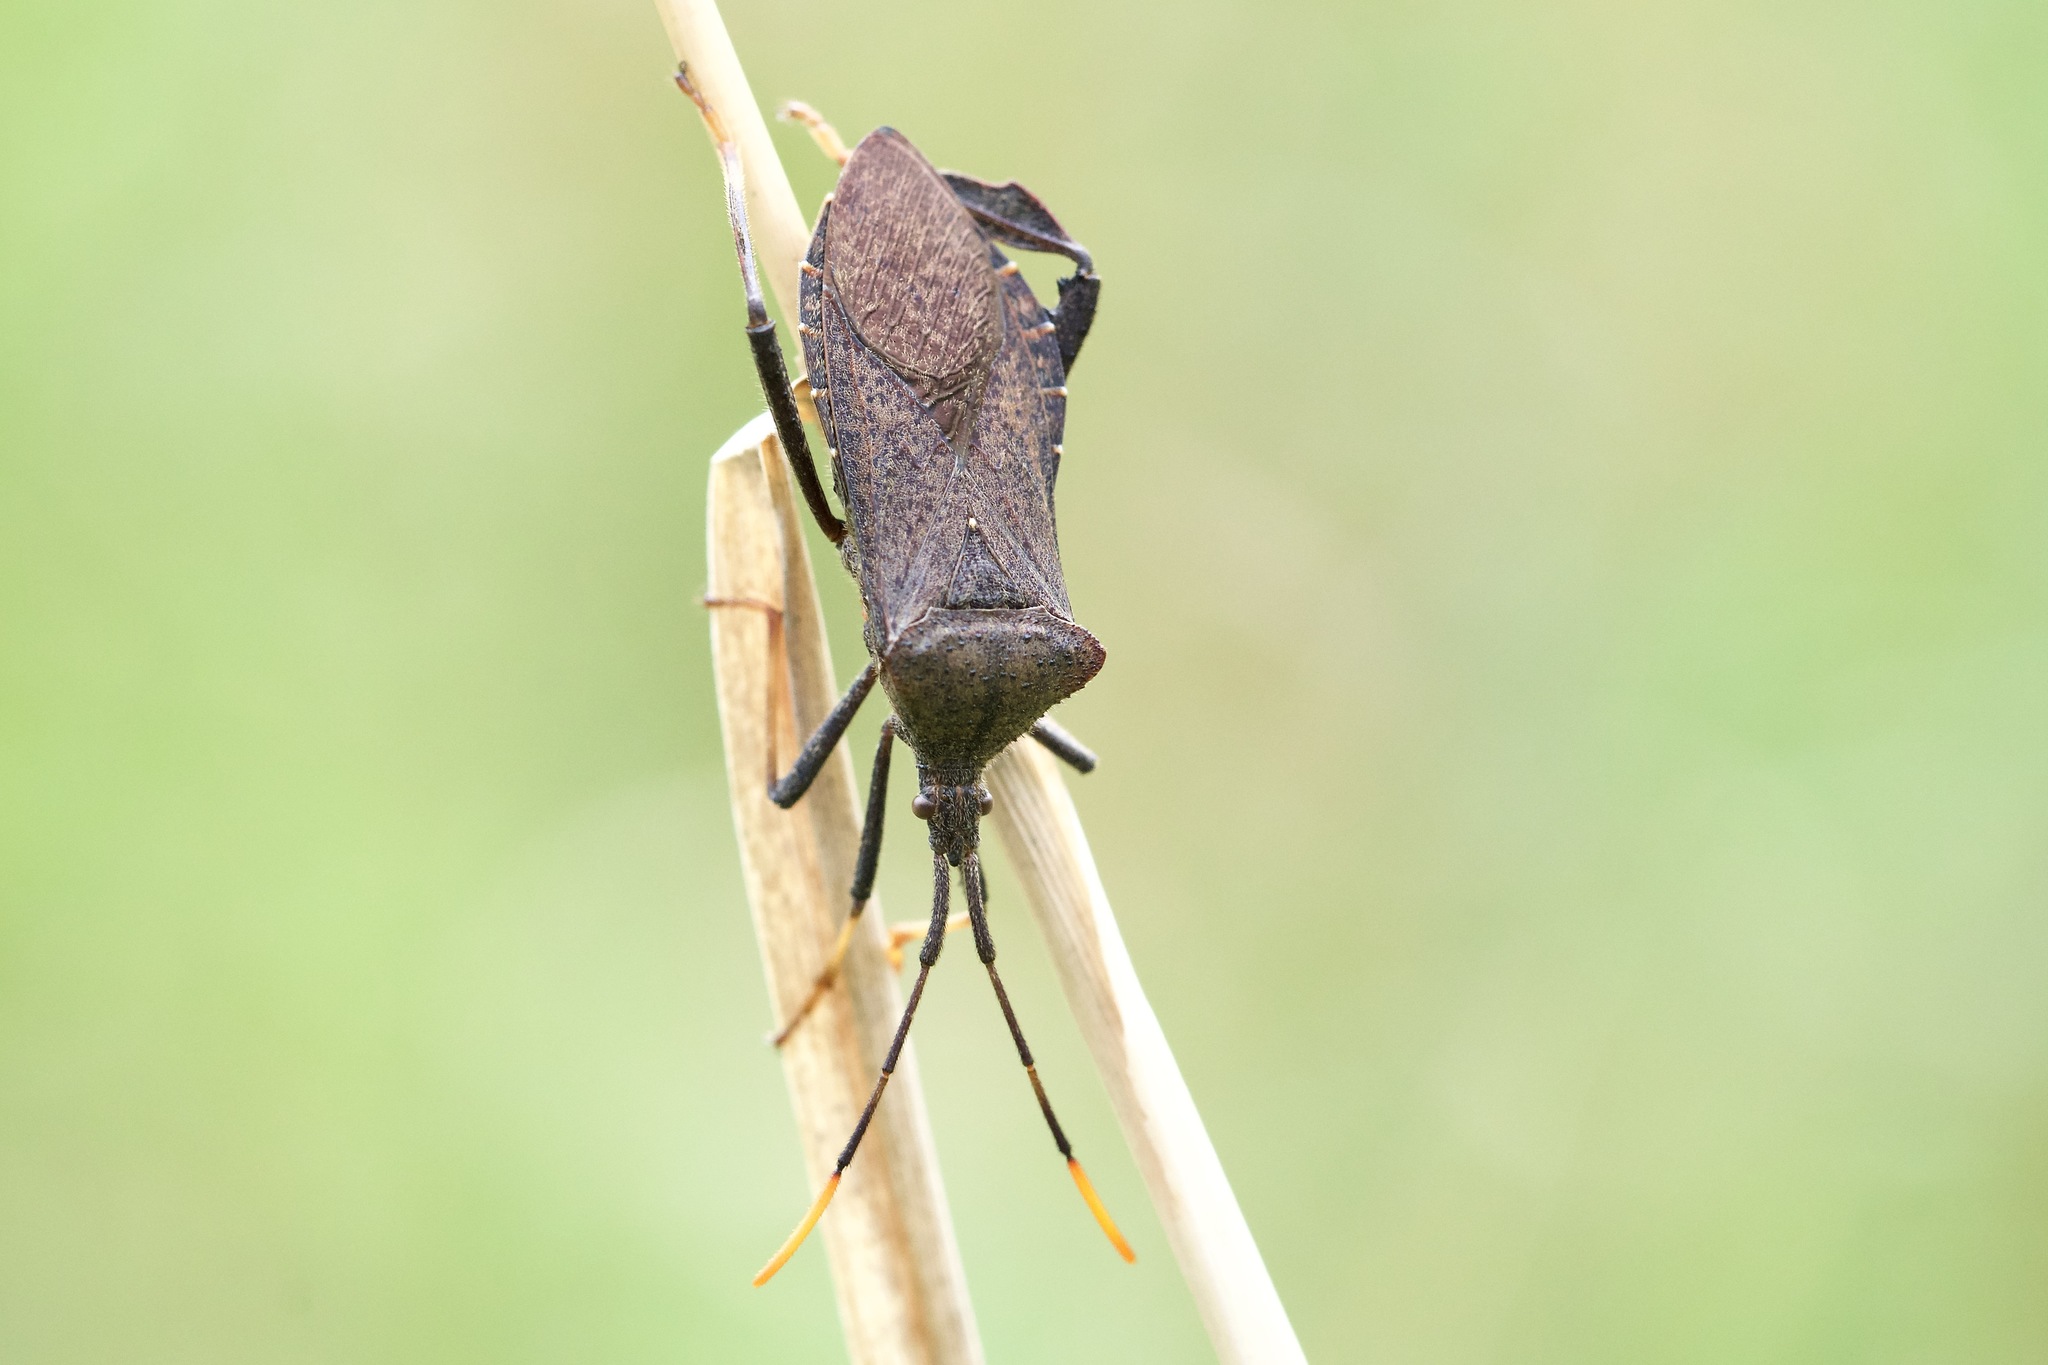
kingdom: Animalia
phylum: Arthropoda
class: Insecta
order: Hemiptera
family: Coreidae
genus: Acanthocephala
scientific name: Acanthocephala terminalis
